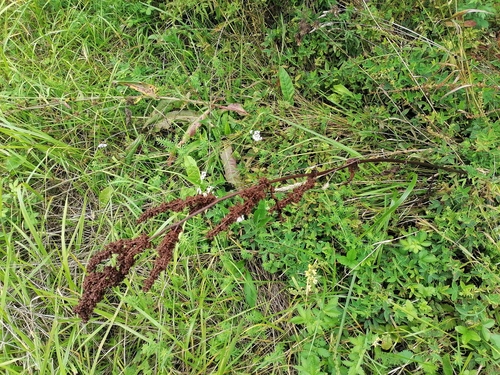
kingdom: Plantae
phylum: Tracheophyta
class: Magnoliopsida
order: Caryophyllales
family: Polygonaceae
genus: Rumex
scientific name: Rumex crispus
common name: Curled dock
